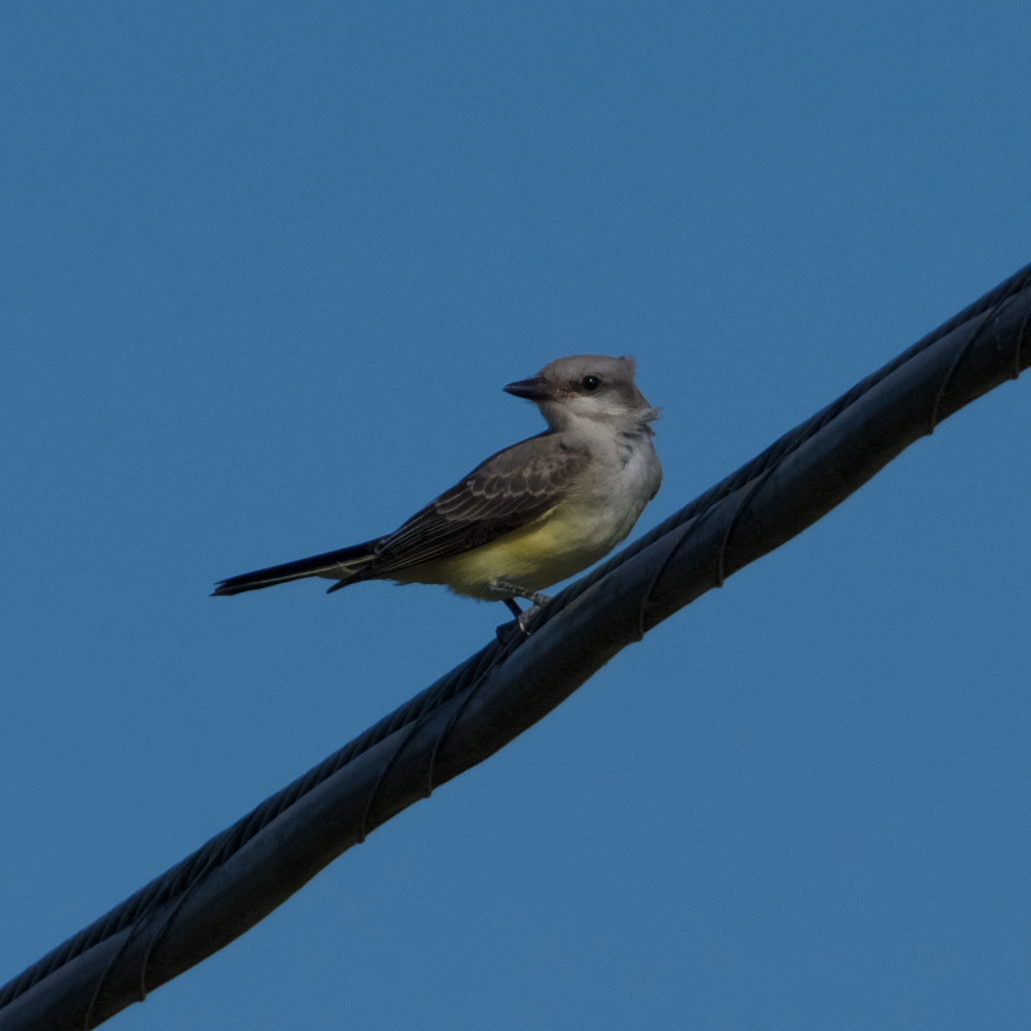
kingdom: Animalia
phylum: Chordata
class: Aves
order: Passeriformes
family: Tyrannidae
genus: Tyrannus
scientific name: Tyrannus verticalis
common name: Western kingbird
